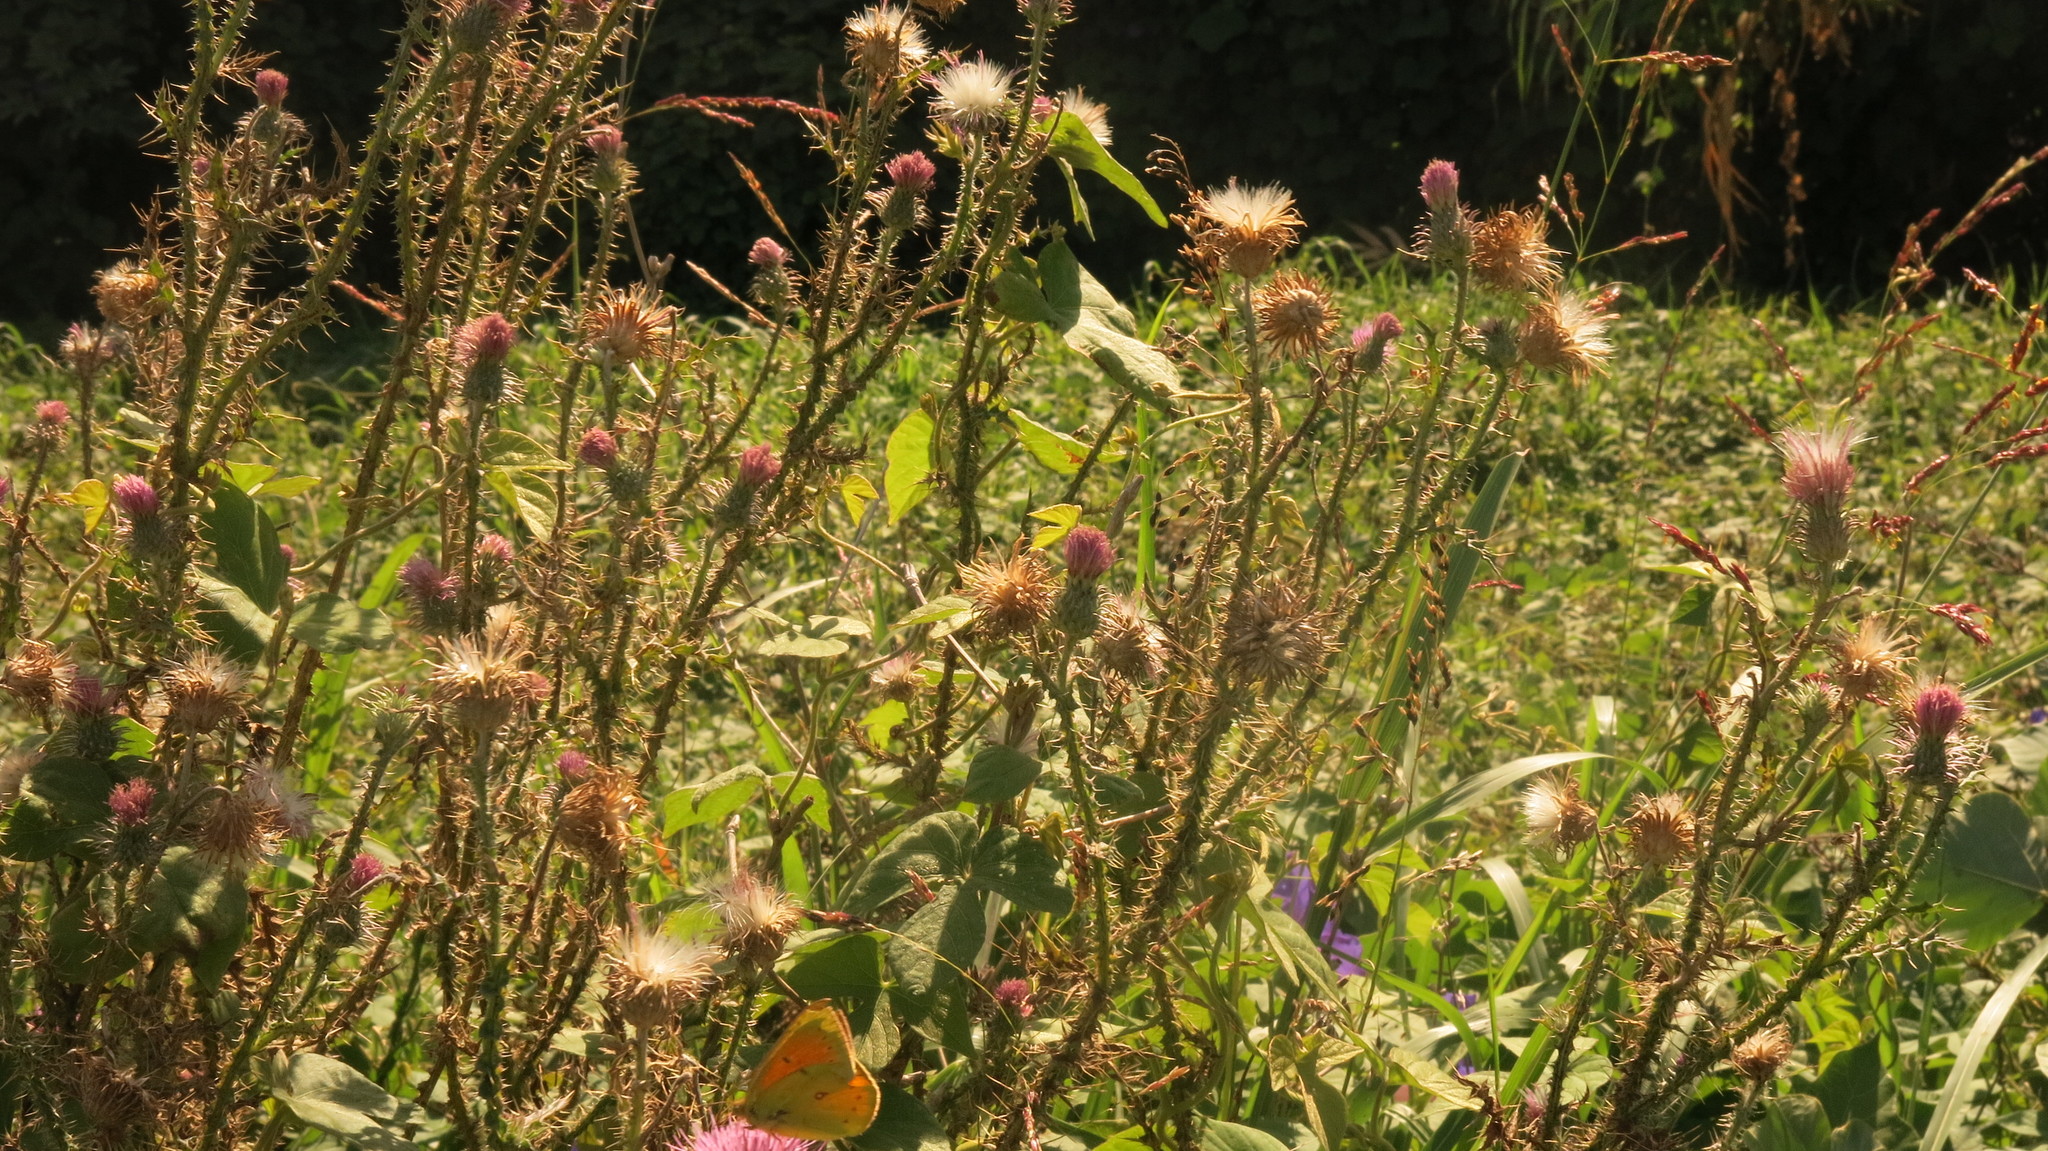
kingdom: Animalia
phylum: Arthropoda
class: Insecta
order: Lepidoptera
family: Pieridae
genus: Colias
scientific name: Colias lesbia
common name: Lesbia clouded yellow
